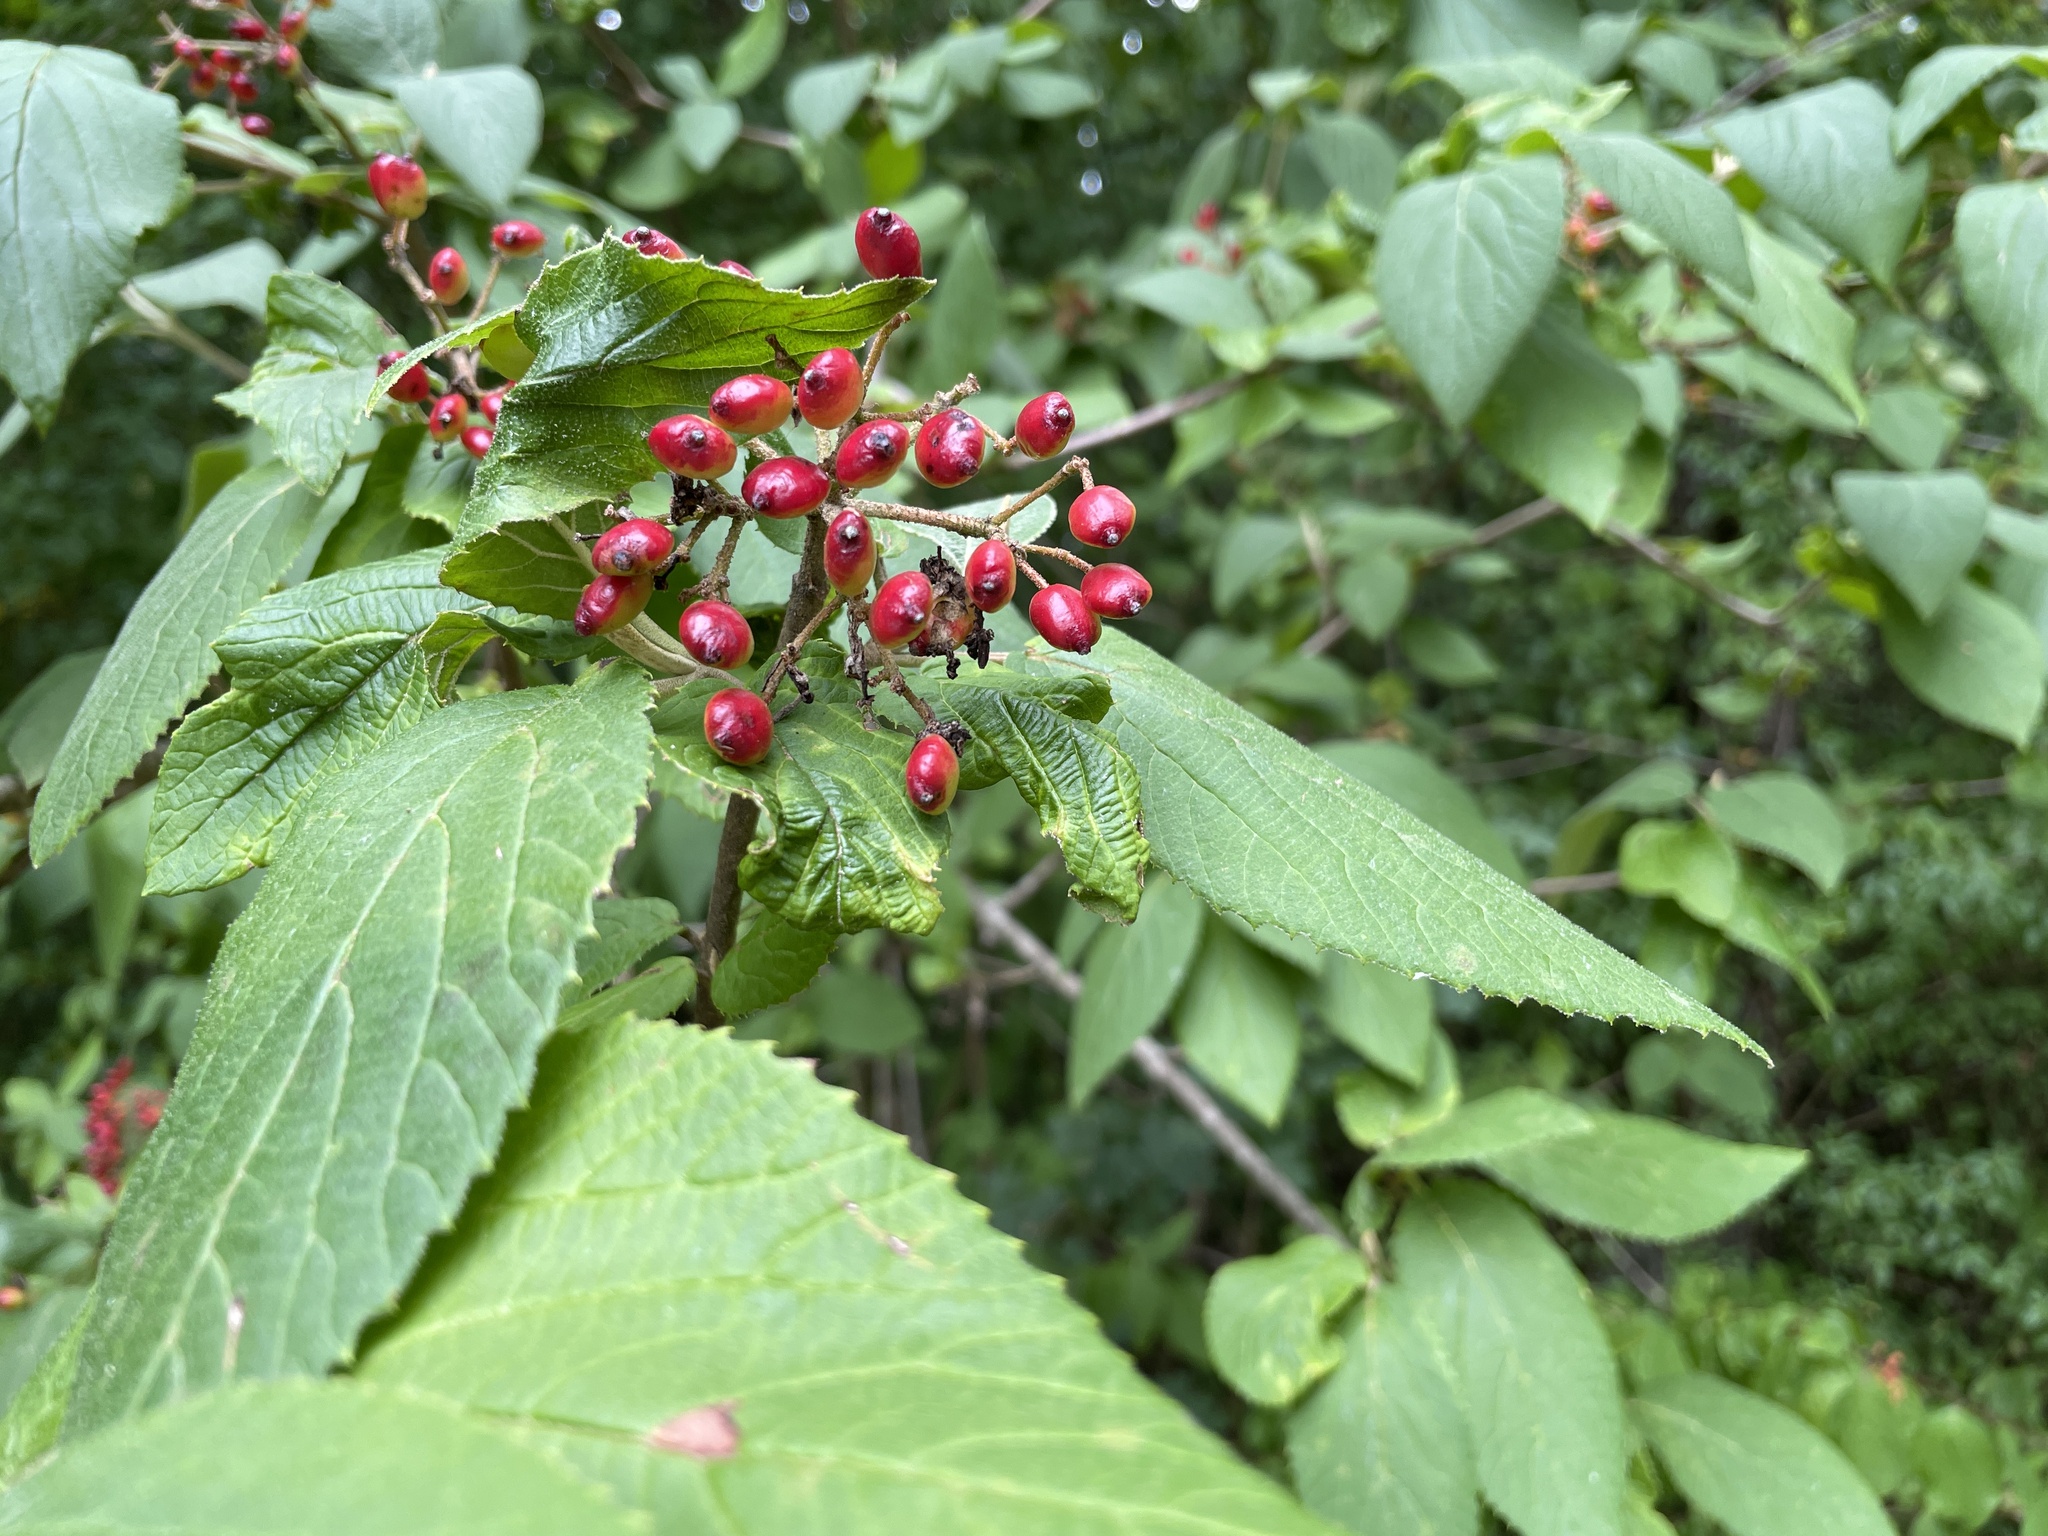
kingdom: Plantae
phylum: Tracheophyta
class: Magnoliopsida
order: Dipsacales
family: Viburnaceae
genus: Viburnum
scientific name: Viburnum lantana
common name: Wayfaring tree
